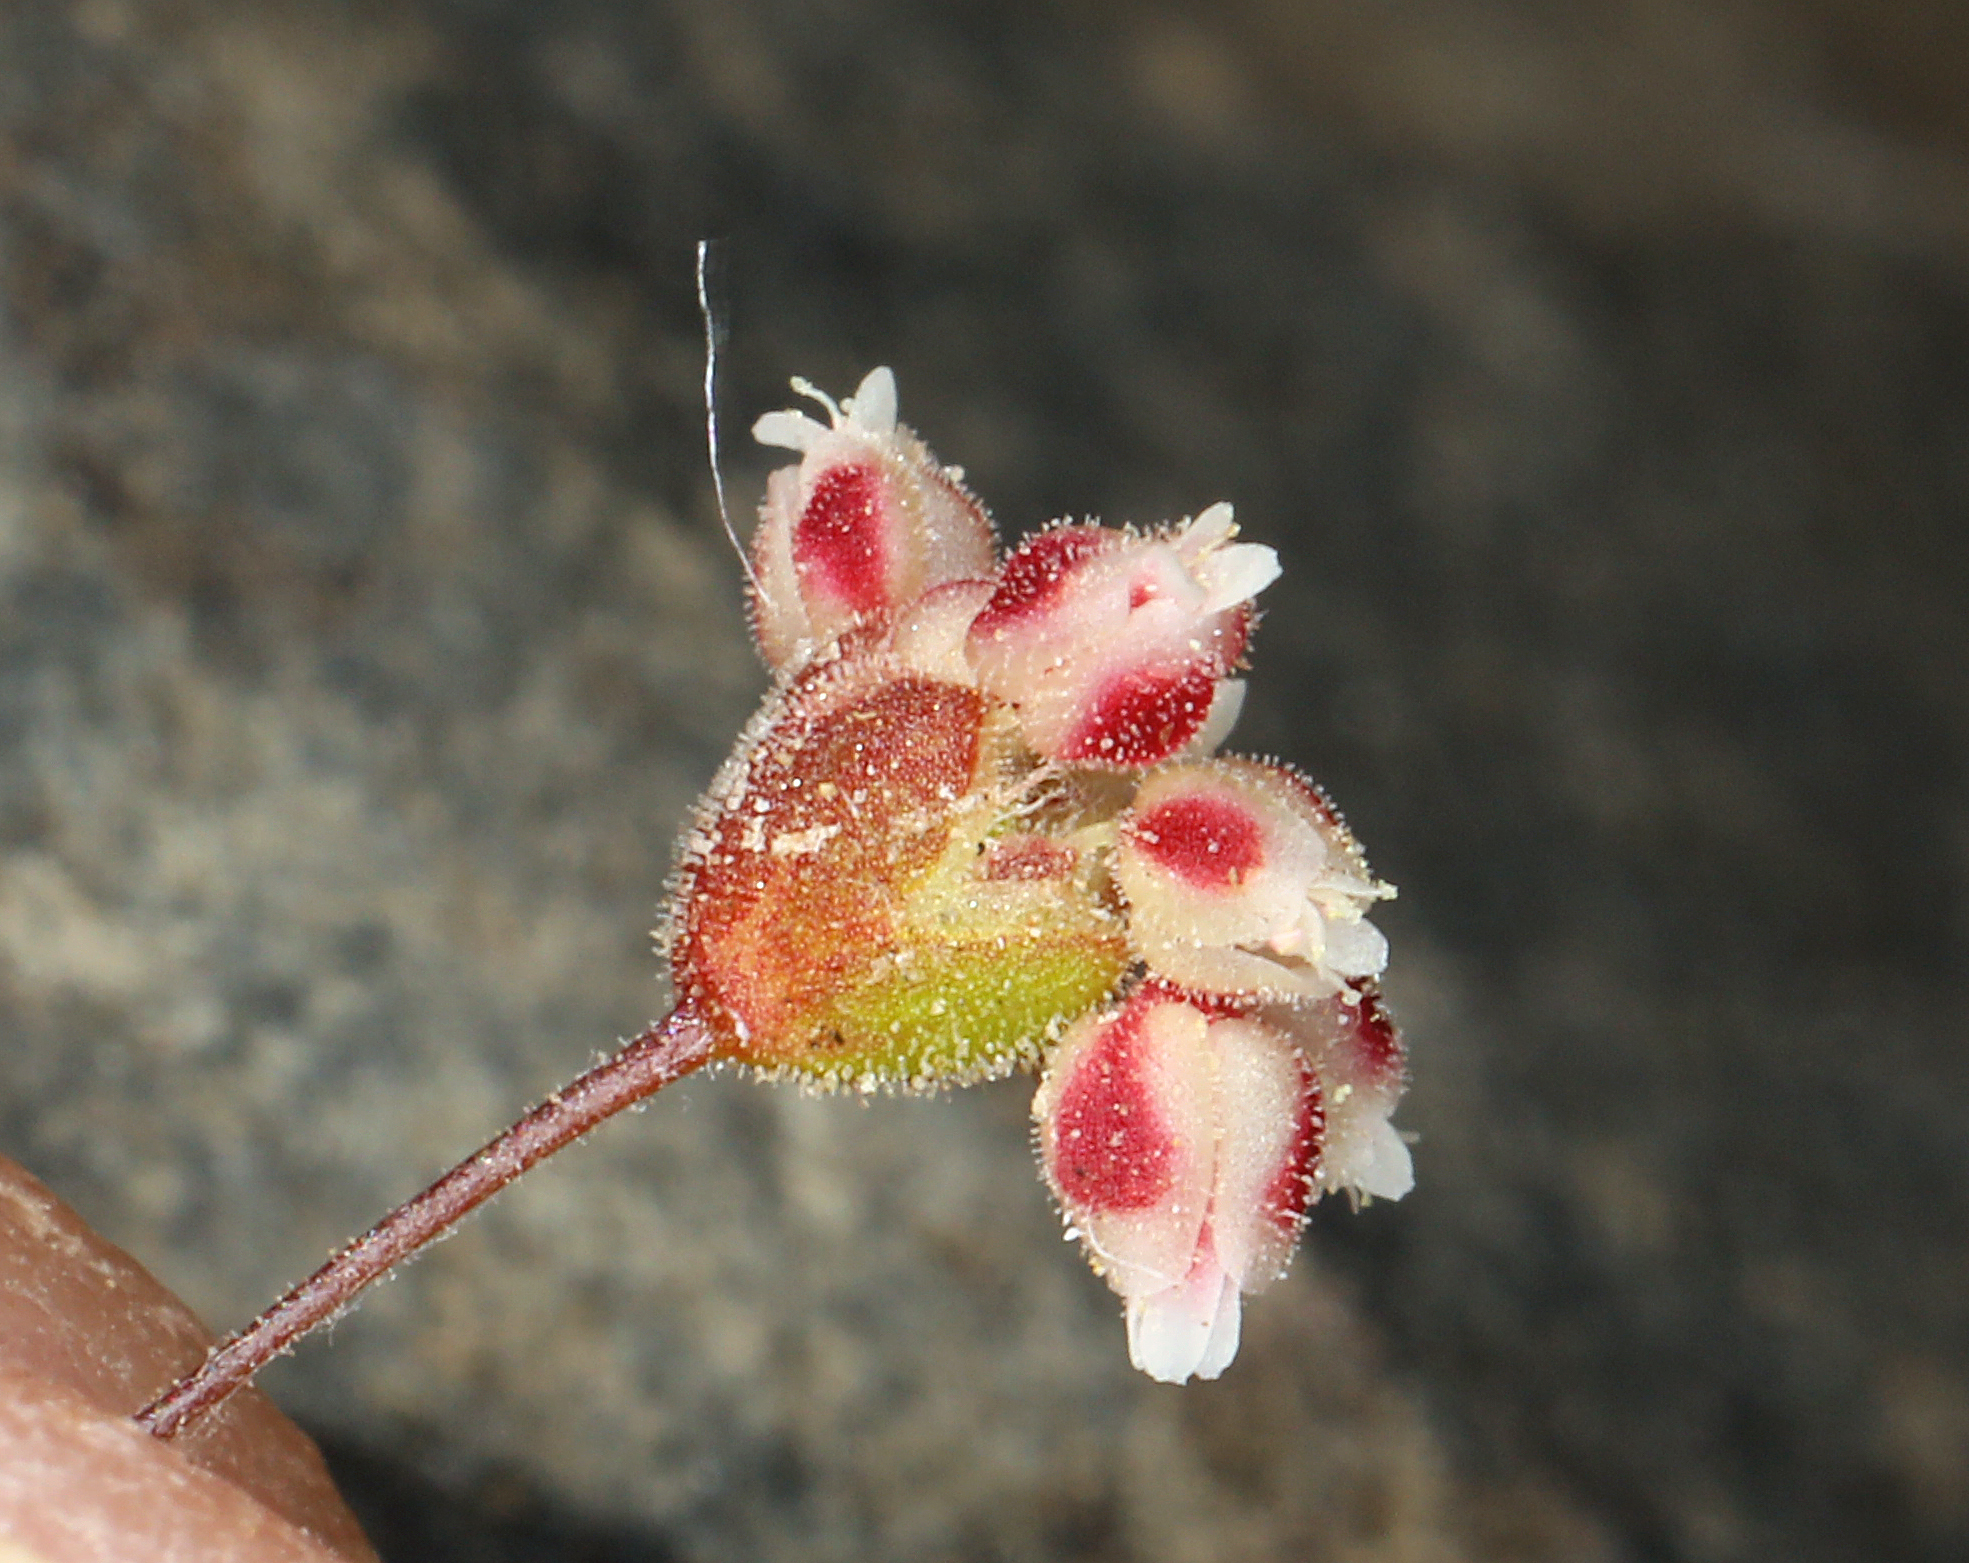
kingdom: Plantae
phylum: Tracheophyta
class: Magnoliopsida
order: Caryophyllales
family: Polygonaceae
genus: Eriogonum
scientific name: Eriogonum maculatum
